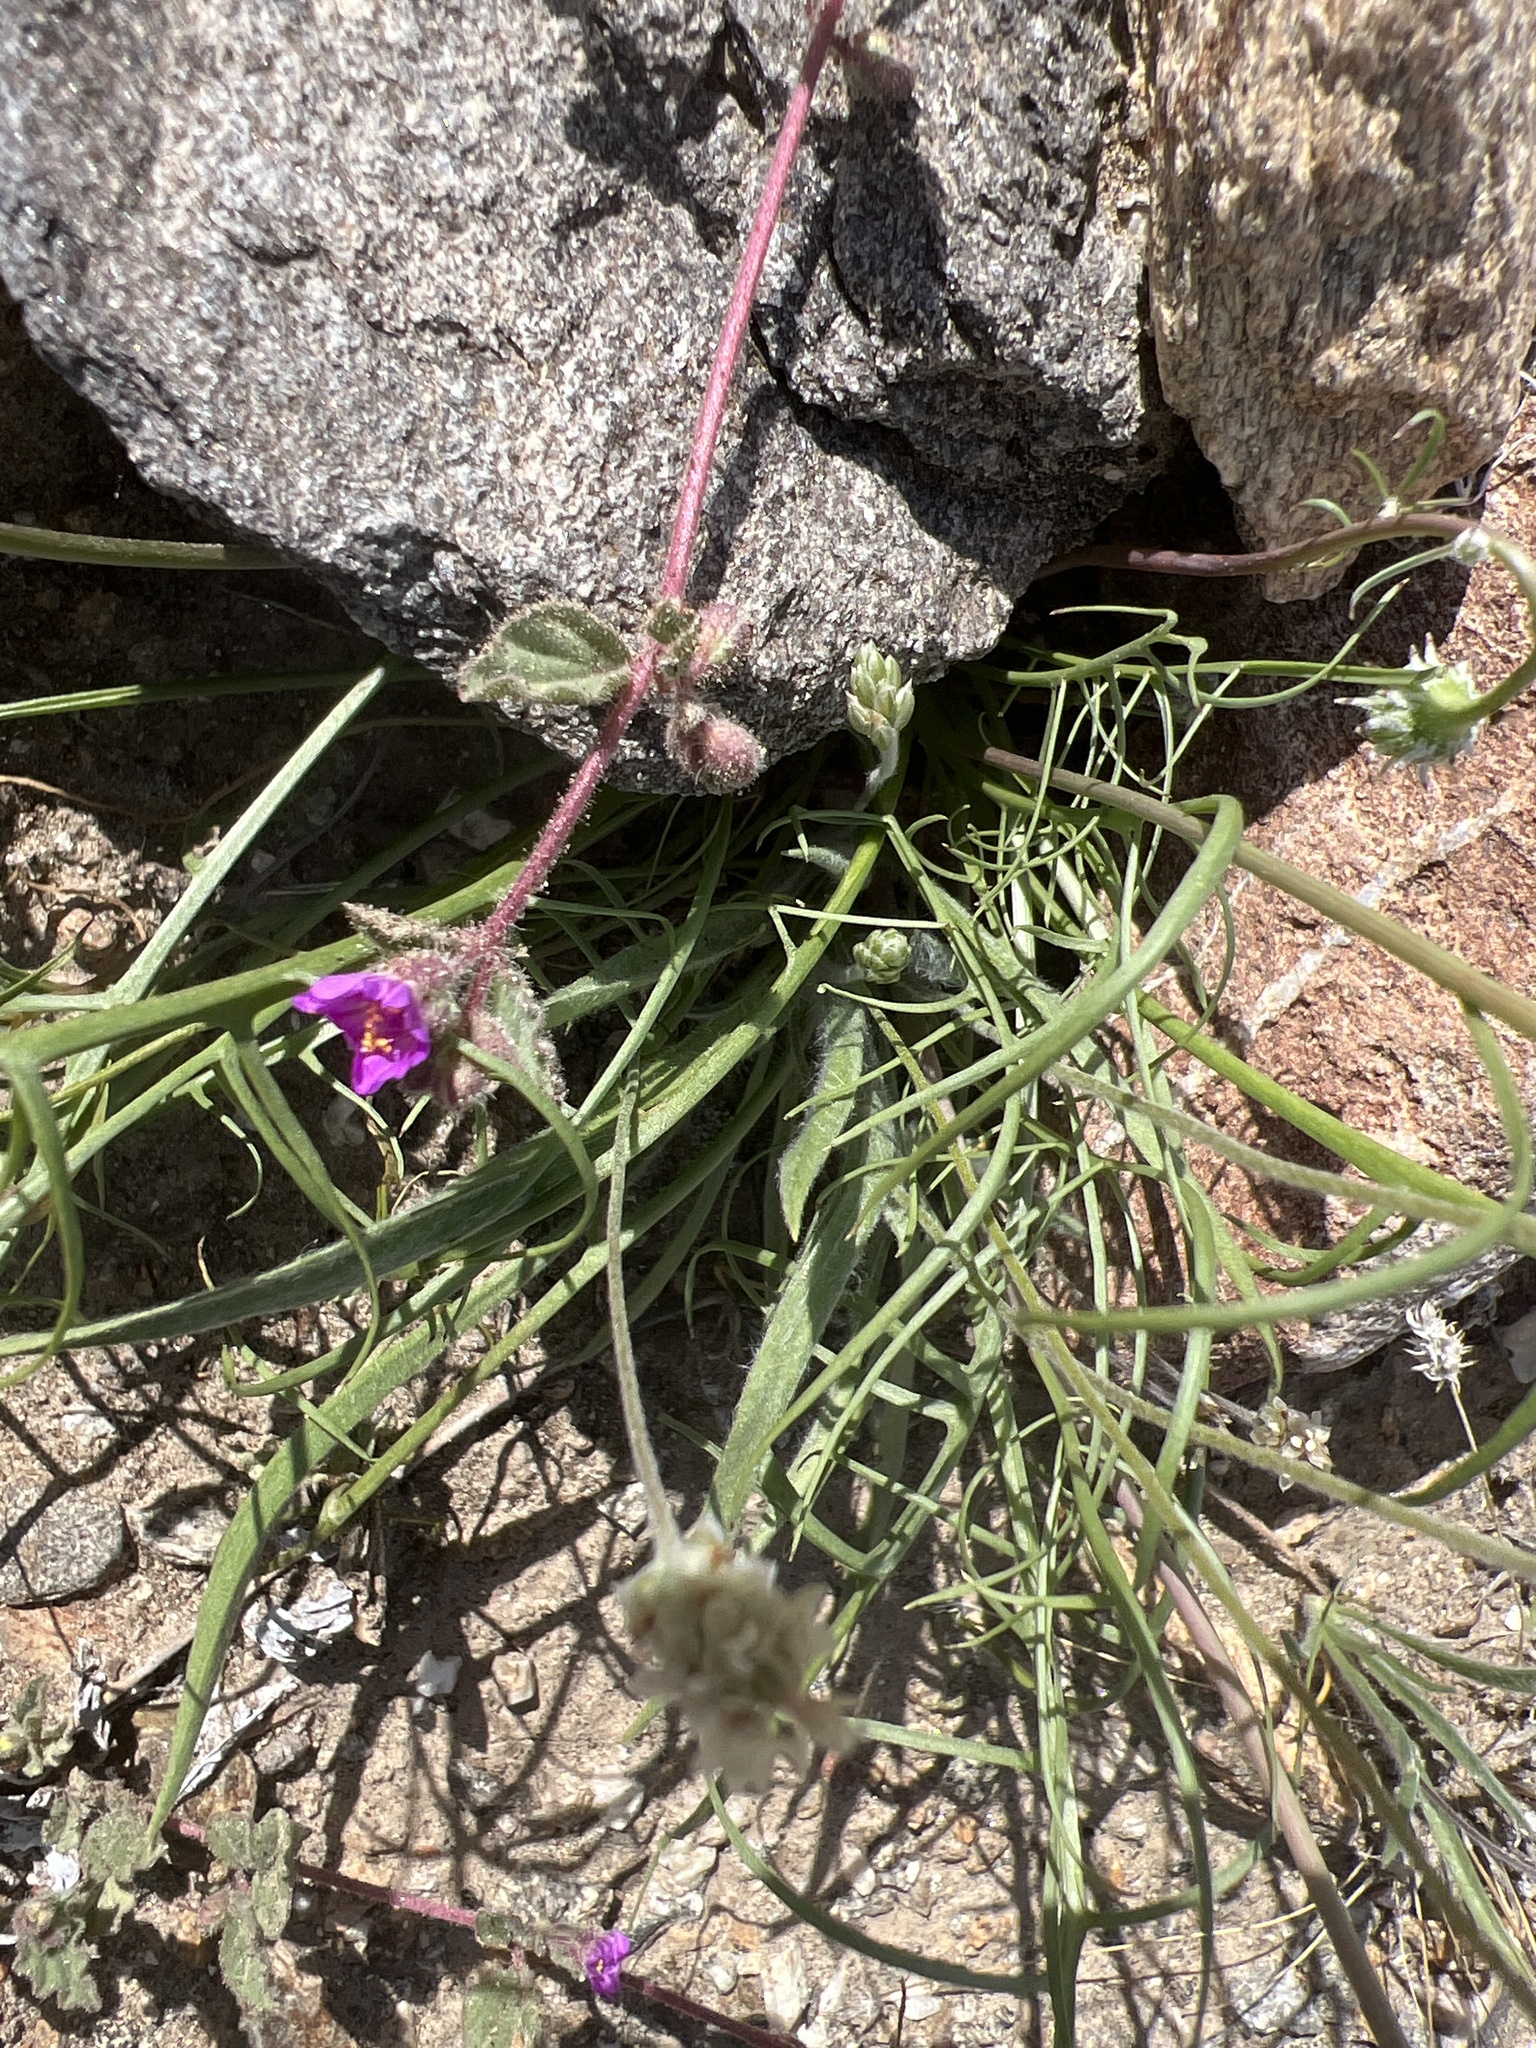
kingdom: Plantae
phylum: Tracheophyta
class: Magnoliopsida
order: Asterales
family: Asteraceae
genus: Malacothrix
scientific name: Malacothrix glabrata
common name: Smooth desert-dandelion
